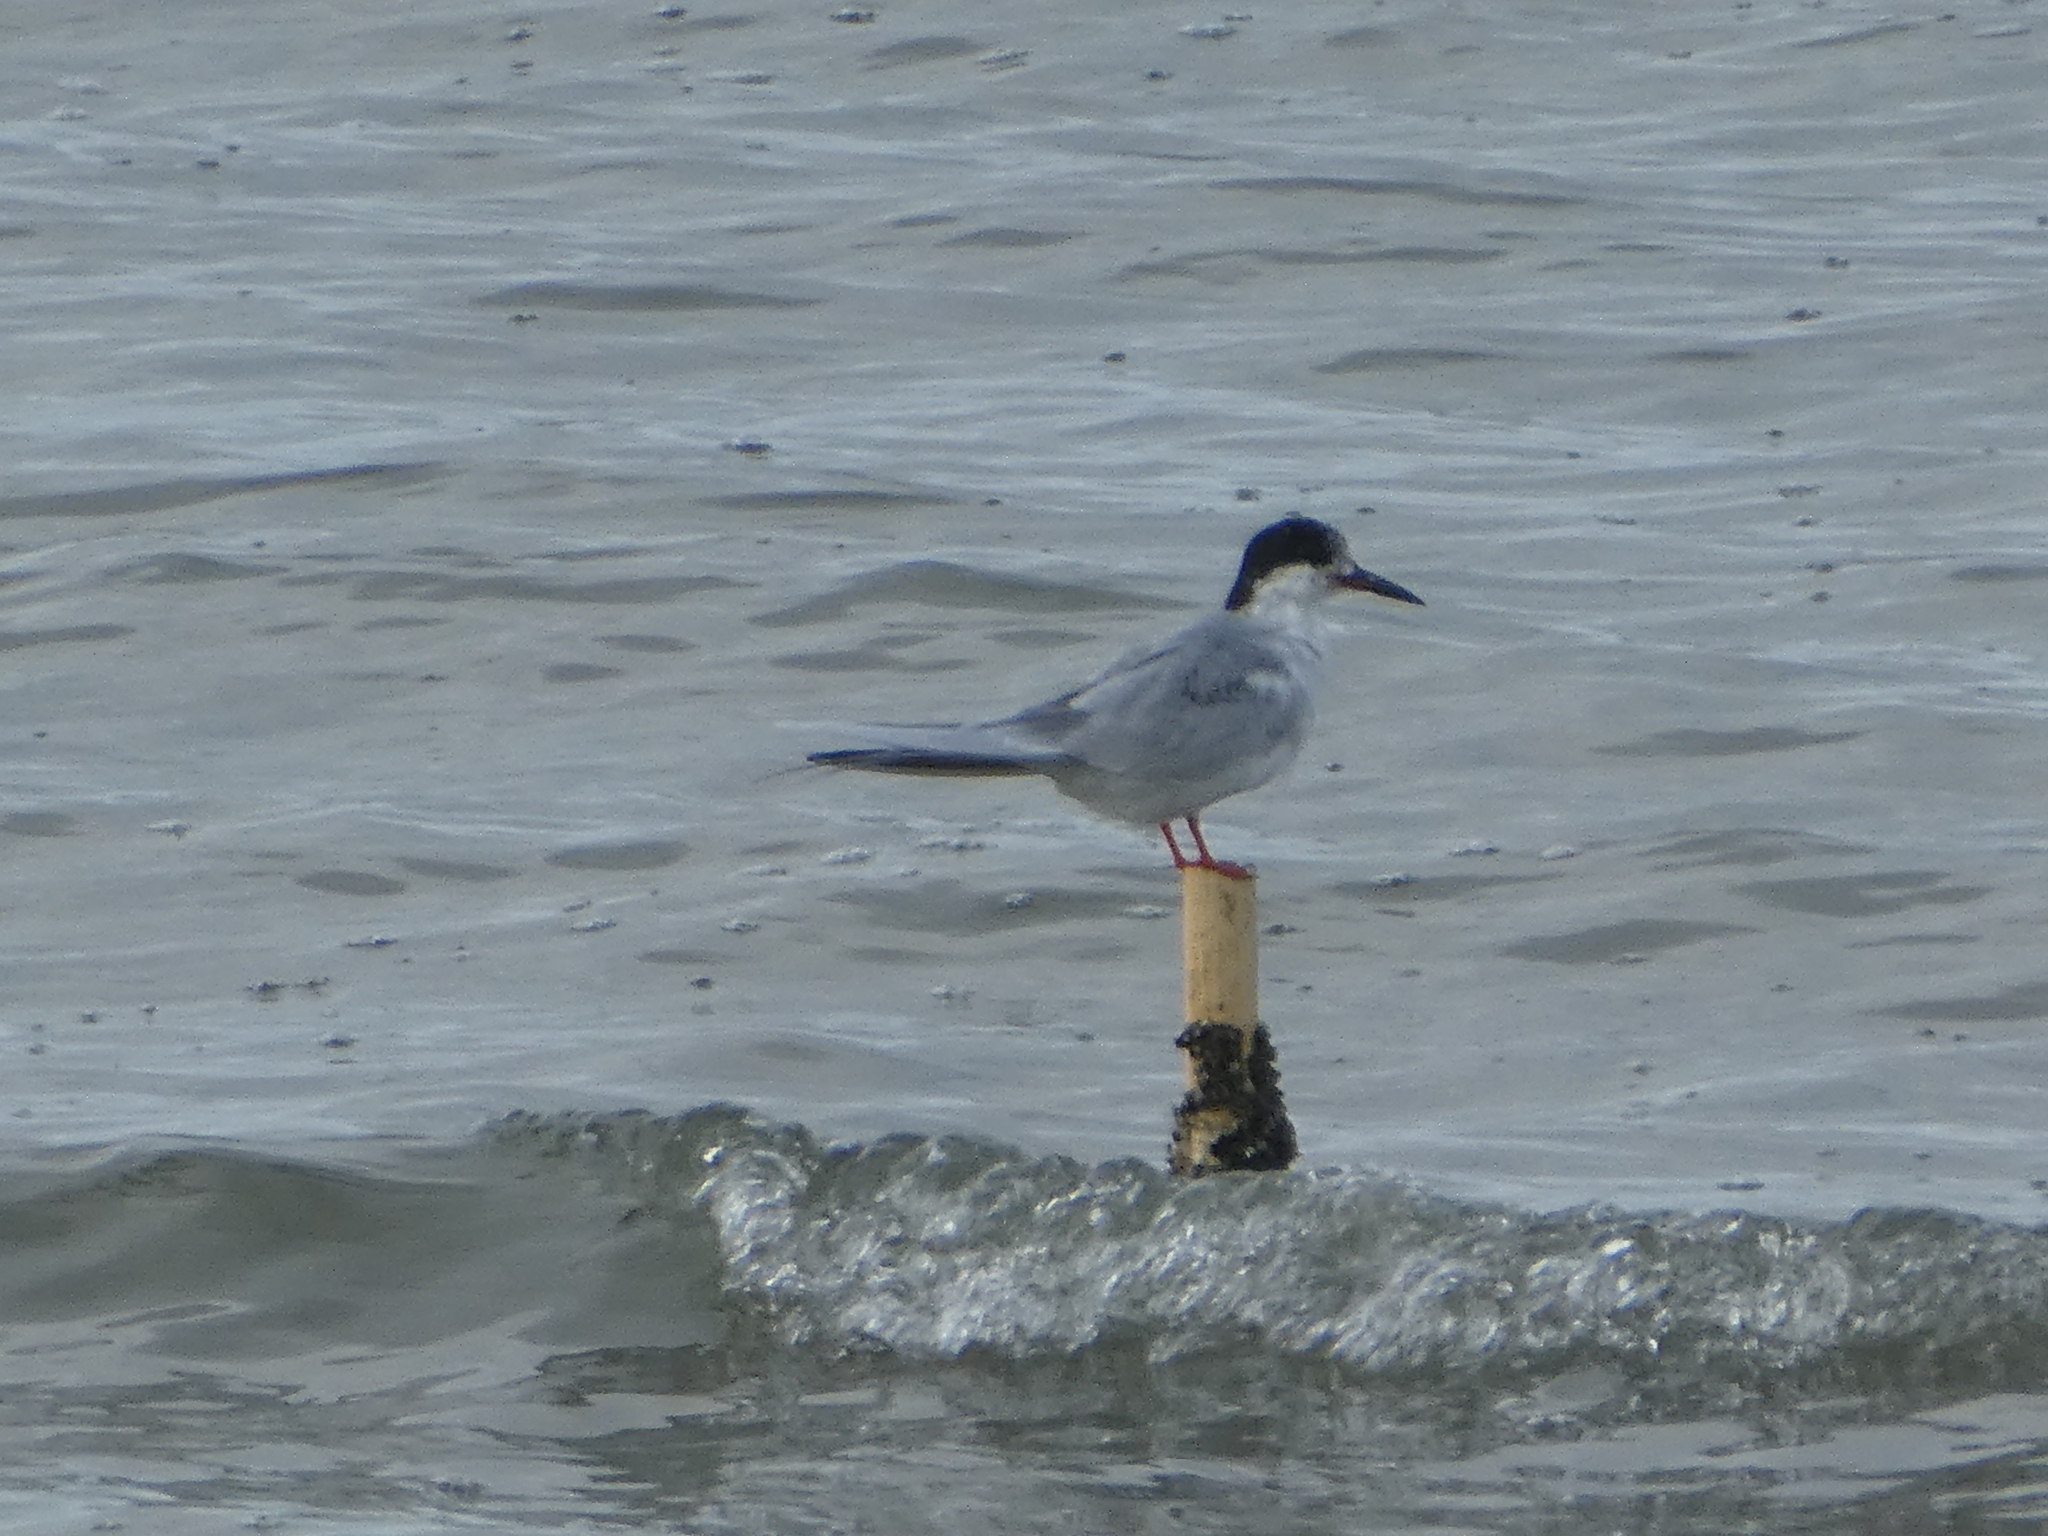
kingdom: Animalia
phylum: Chordata
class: Aves
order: Charadriiformes
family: Laridae
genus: Sterna
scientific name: Sterna forsteri
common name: Forster's tern
